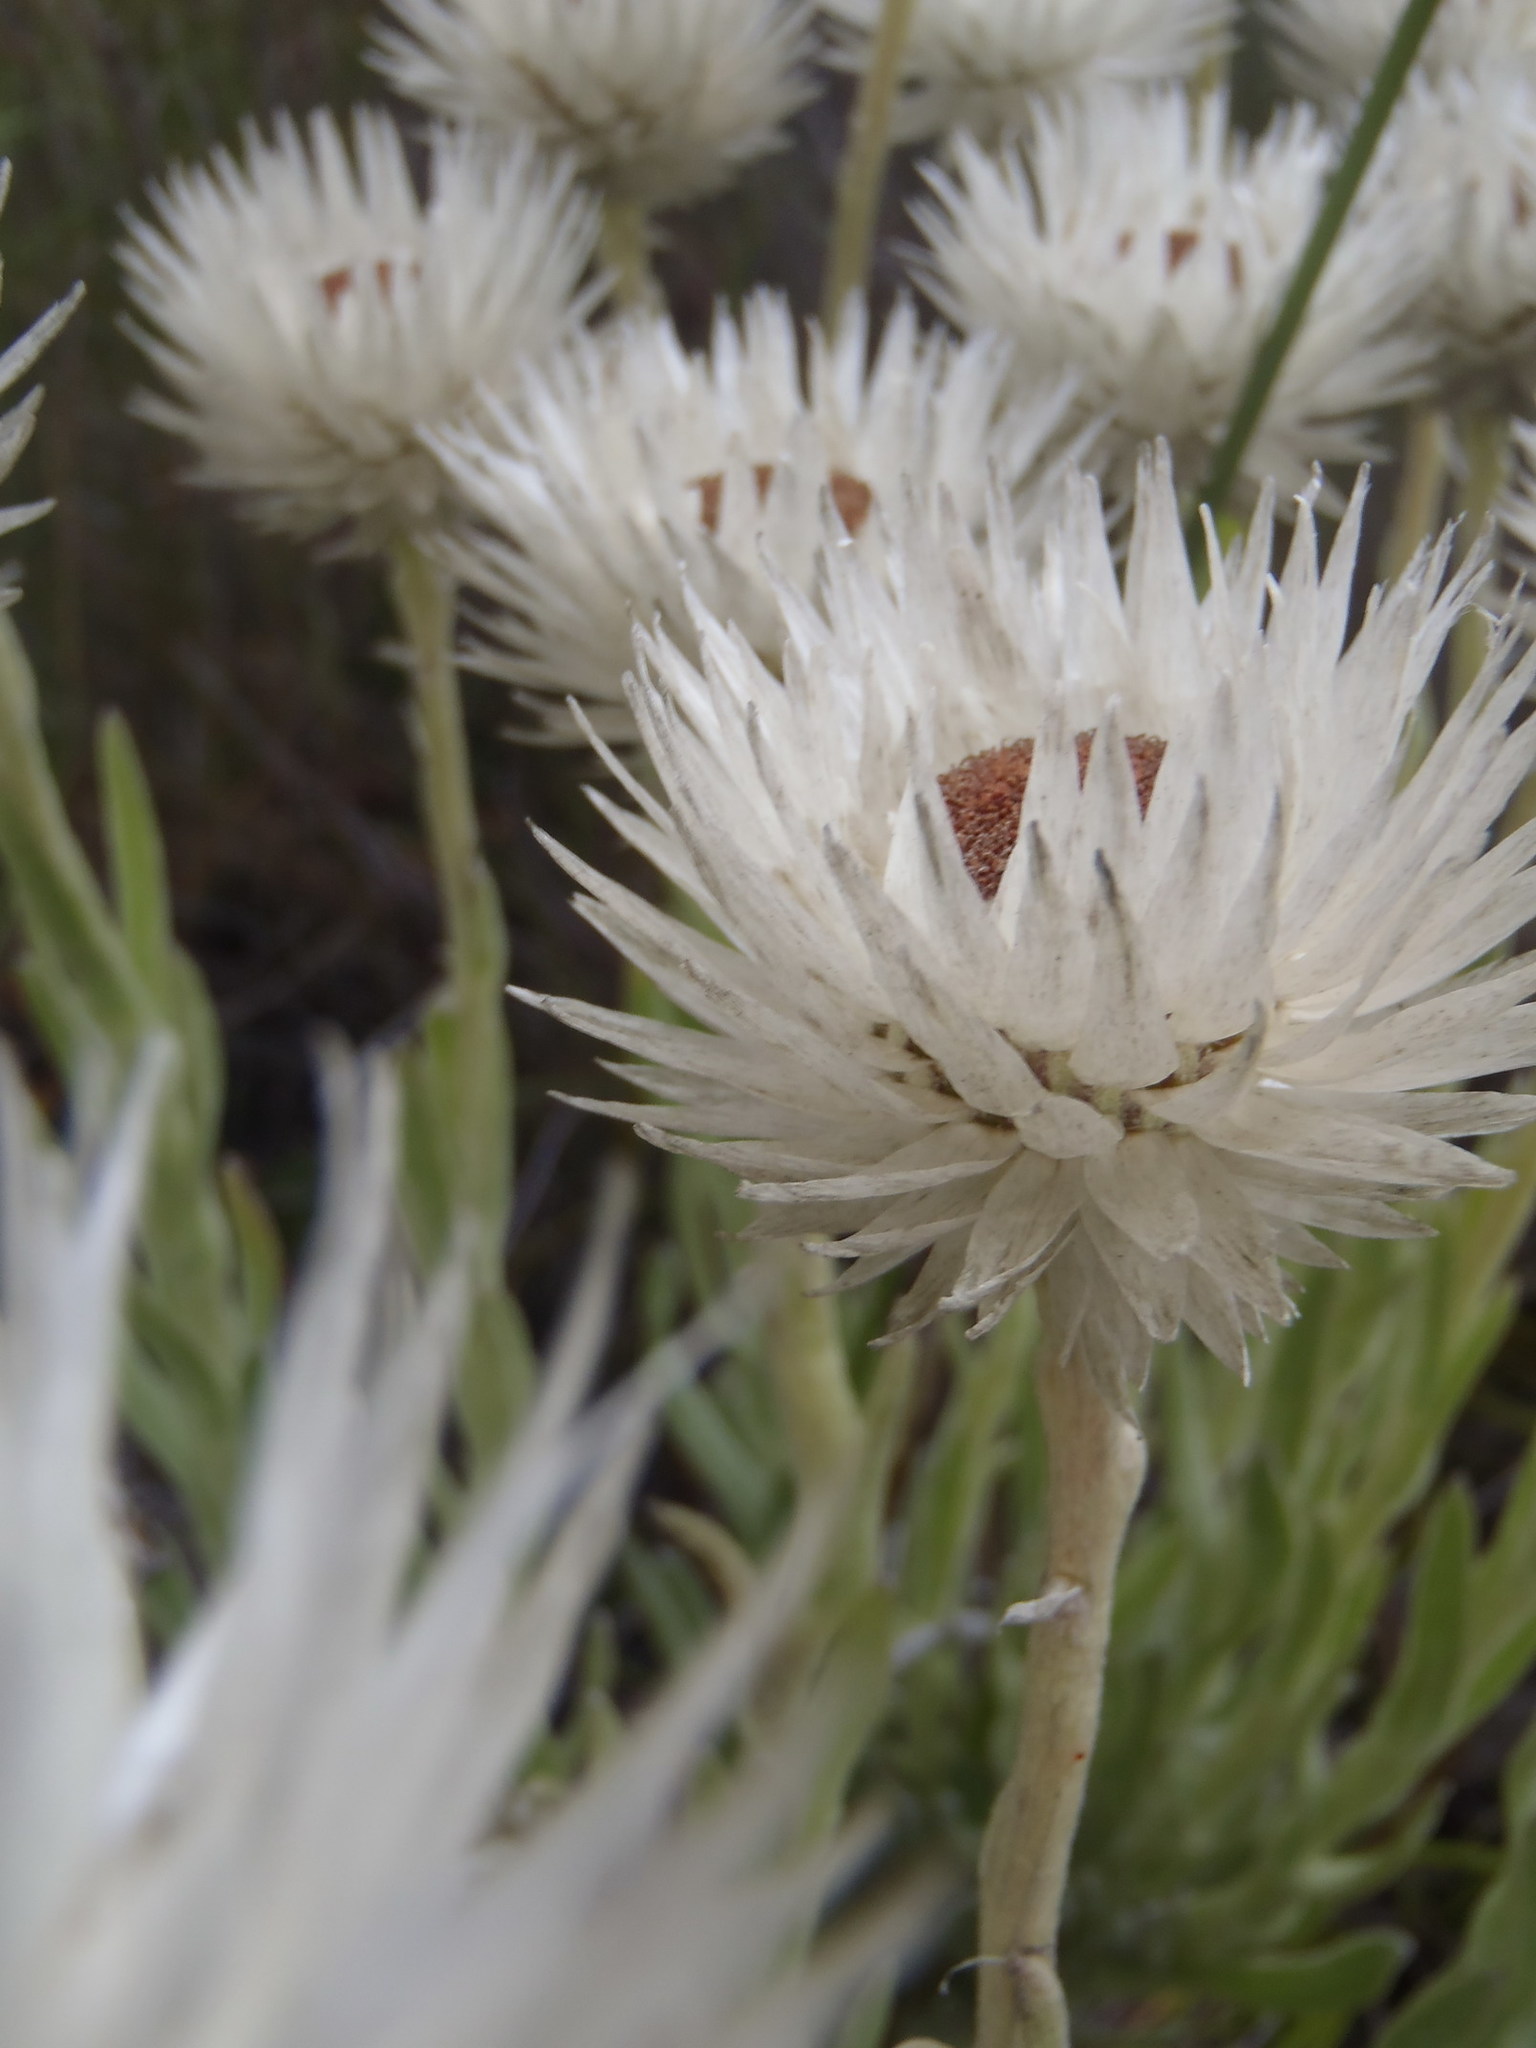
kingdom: Plantae
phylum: Tracheophyta
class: Magnoliopsida
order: Asterales
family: Asteraceae
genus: Syncarpha
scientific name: Syncarpha vestita
